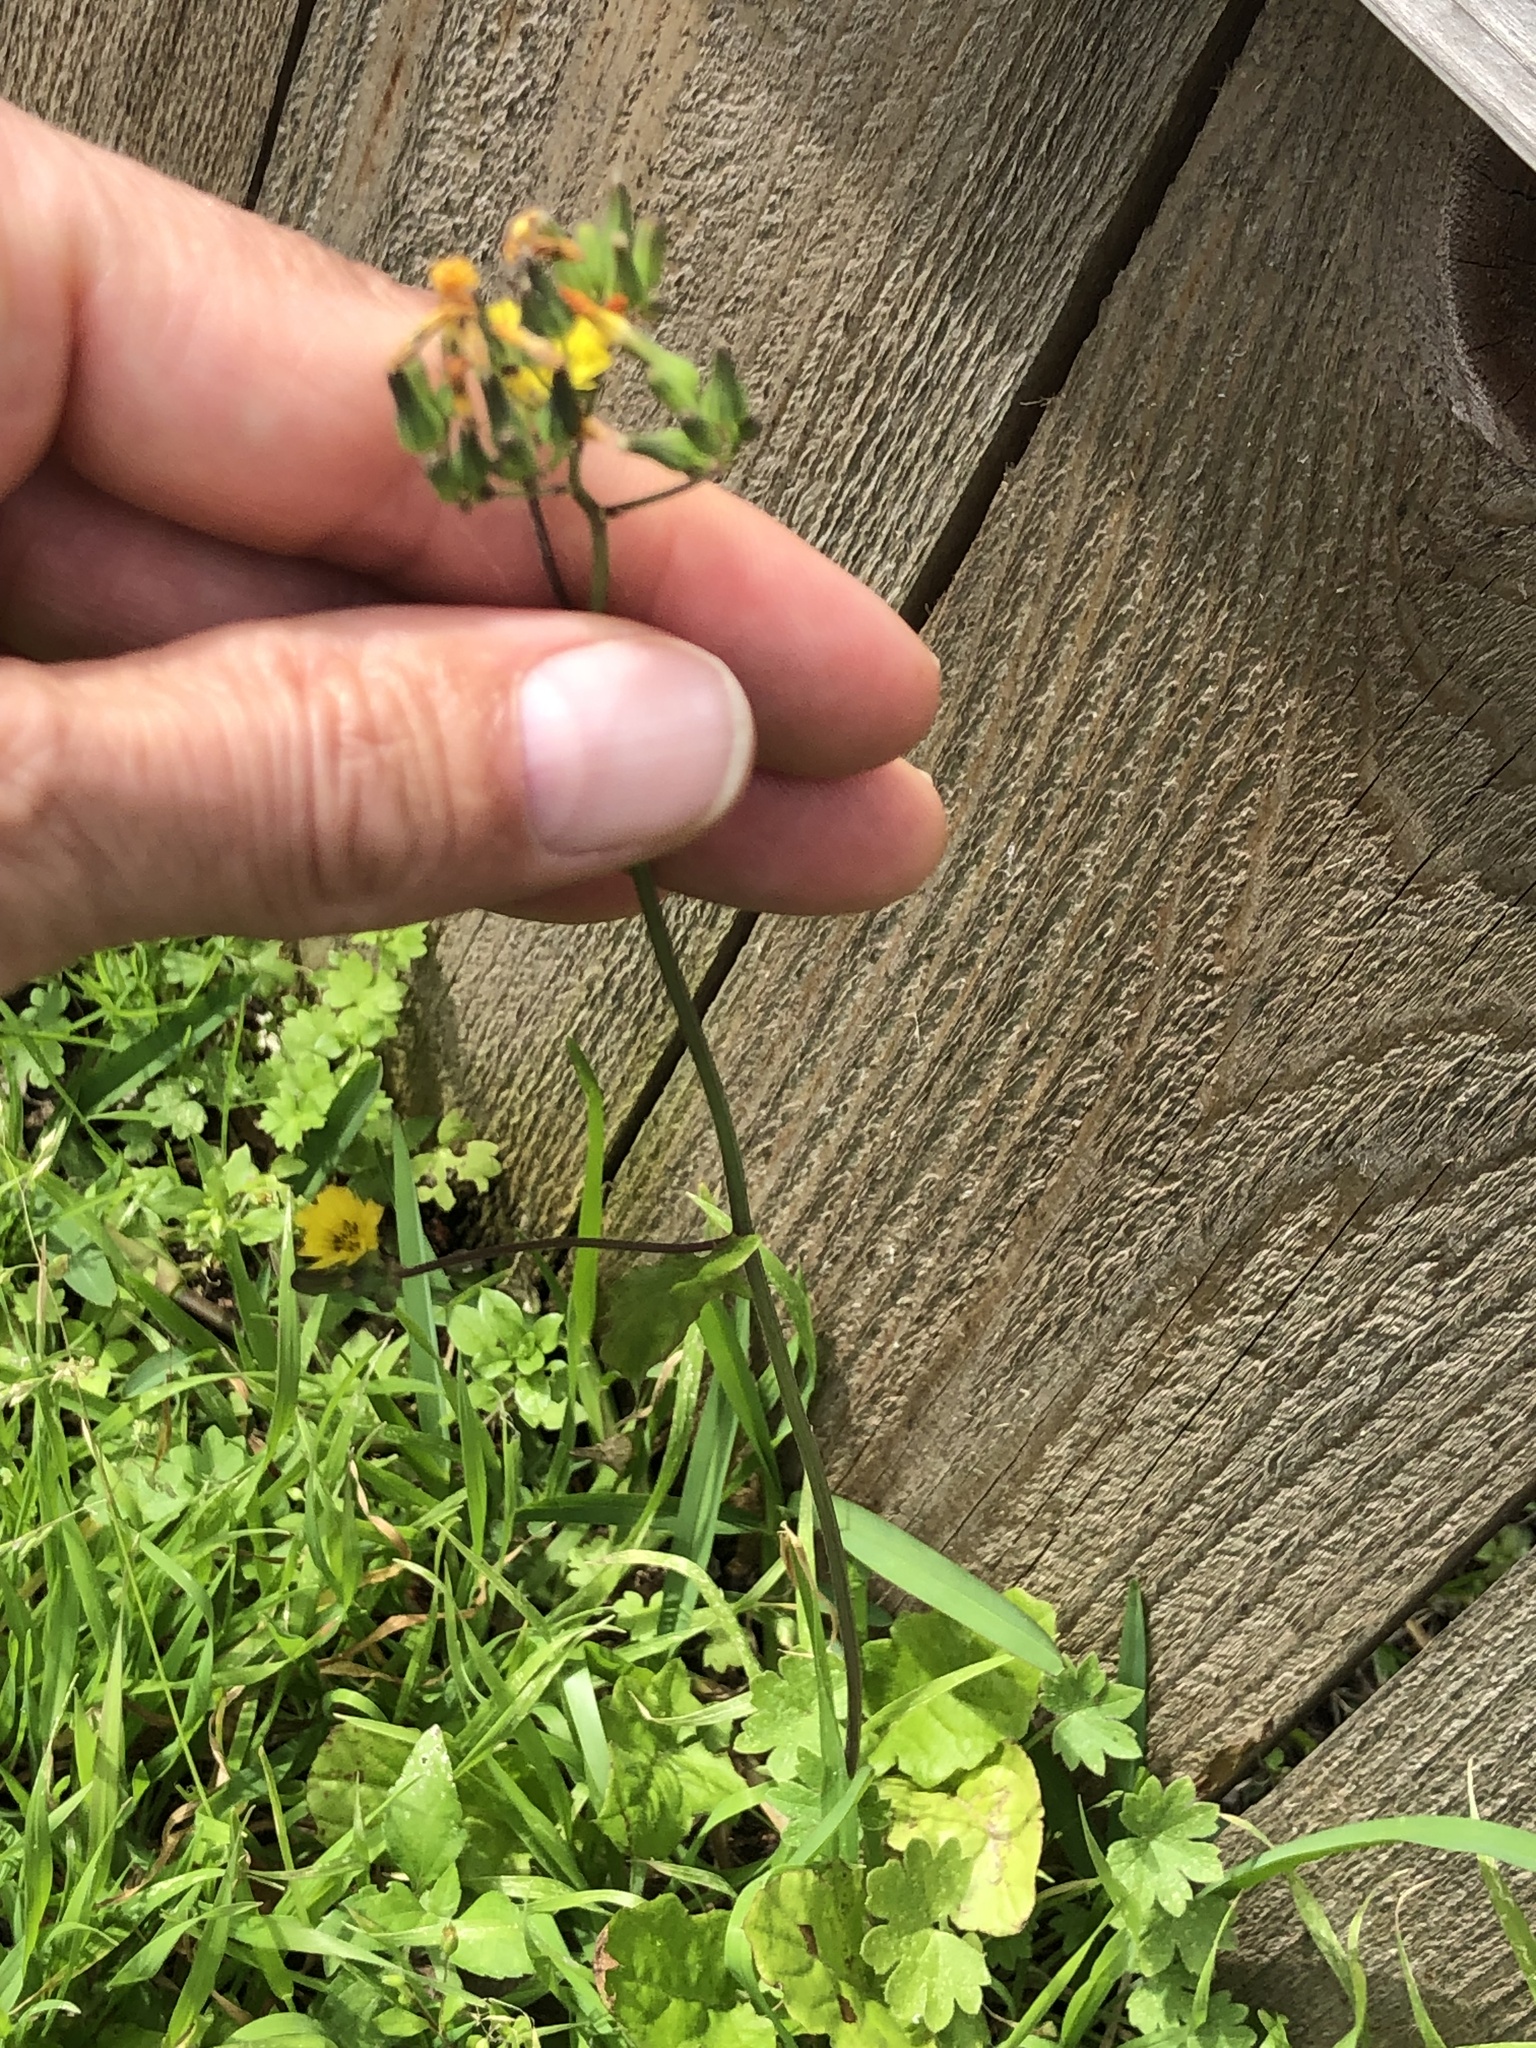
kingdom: Plantae
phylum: Tracheophyta
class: Magnoliopsida
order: Asterales
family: Asteraceae
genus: Youngia
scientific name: Youngia japonica
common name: Oriental false hawksbeard
